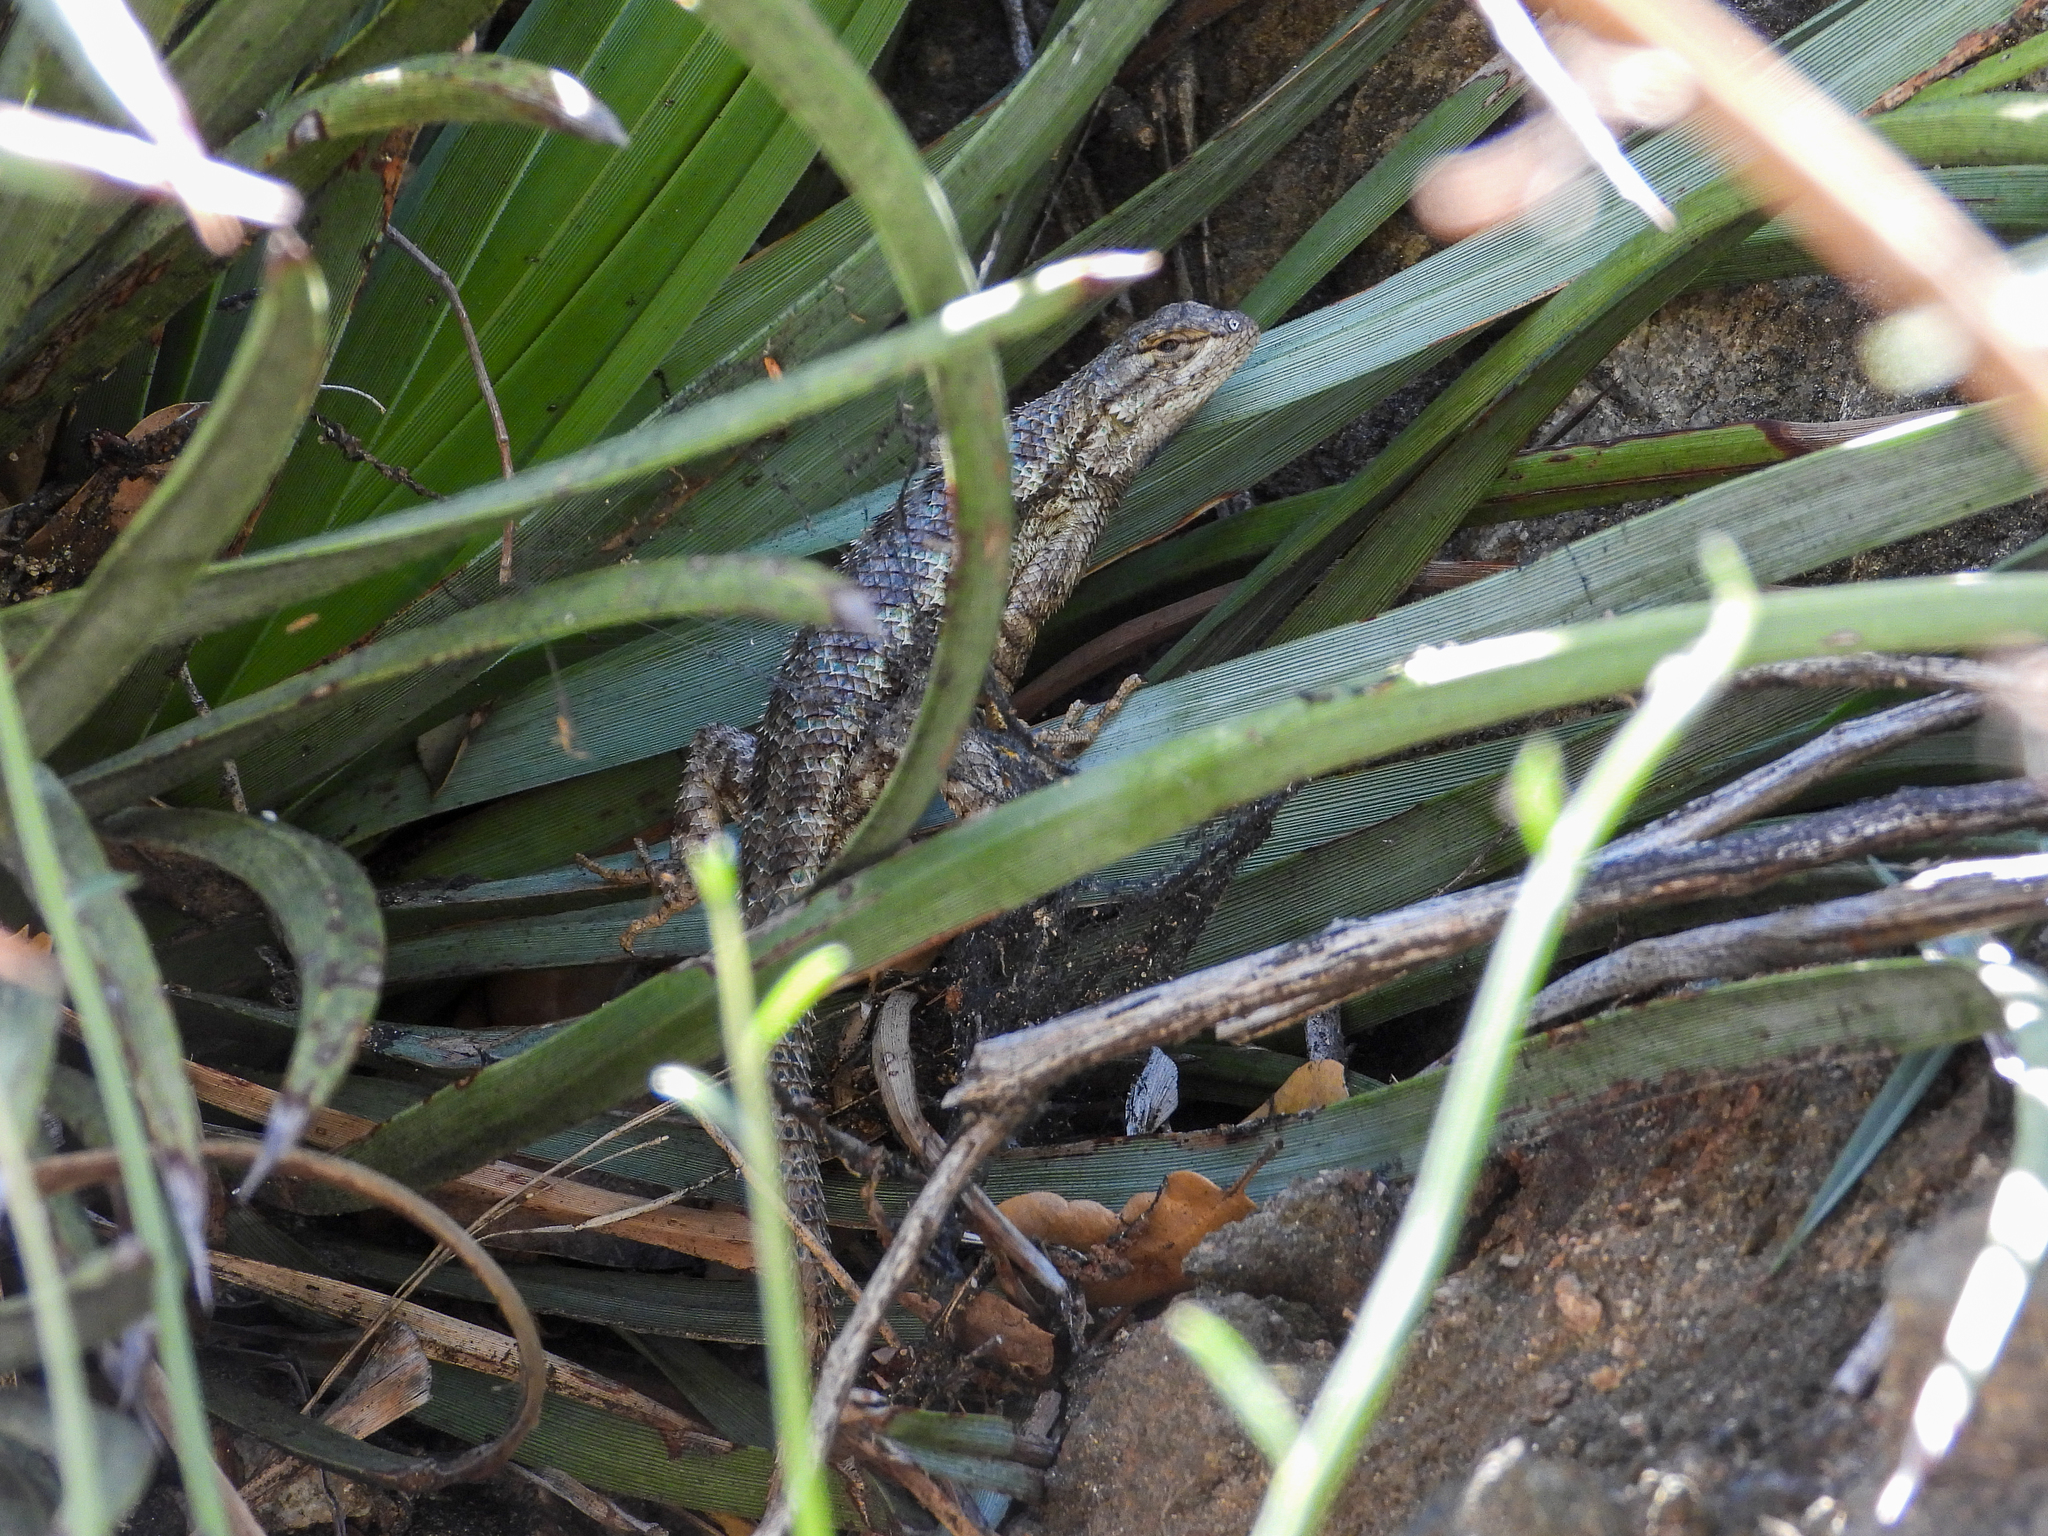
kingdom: Animalia
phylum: Chordata
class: Squamata
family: Phrynosomatidae
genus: Sceloporus
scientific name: Sceloporus occidentalis
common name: Western fence lizard
